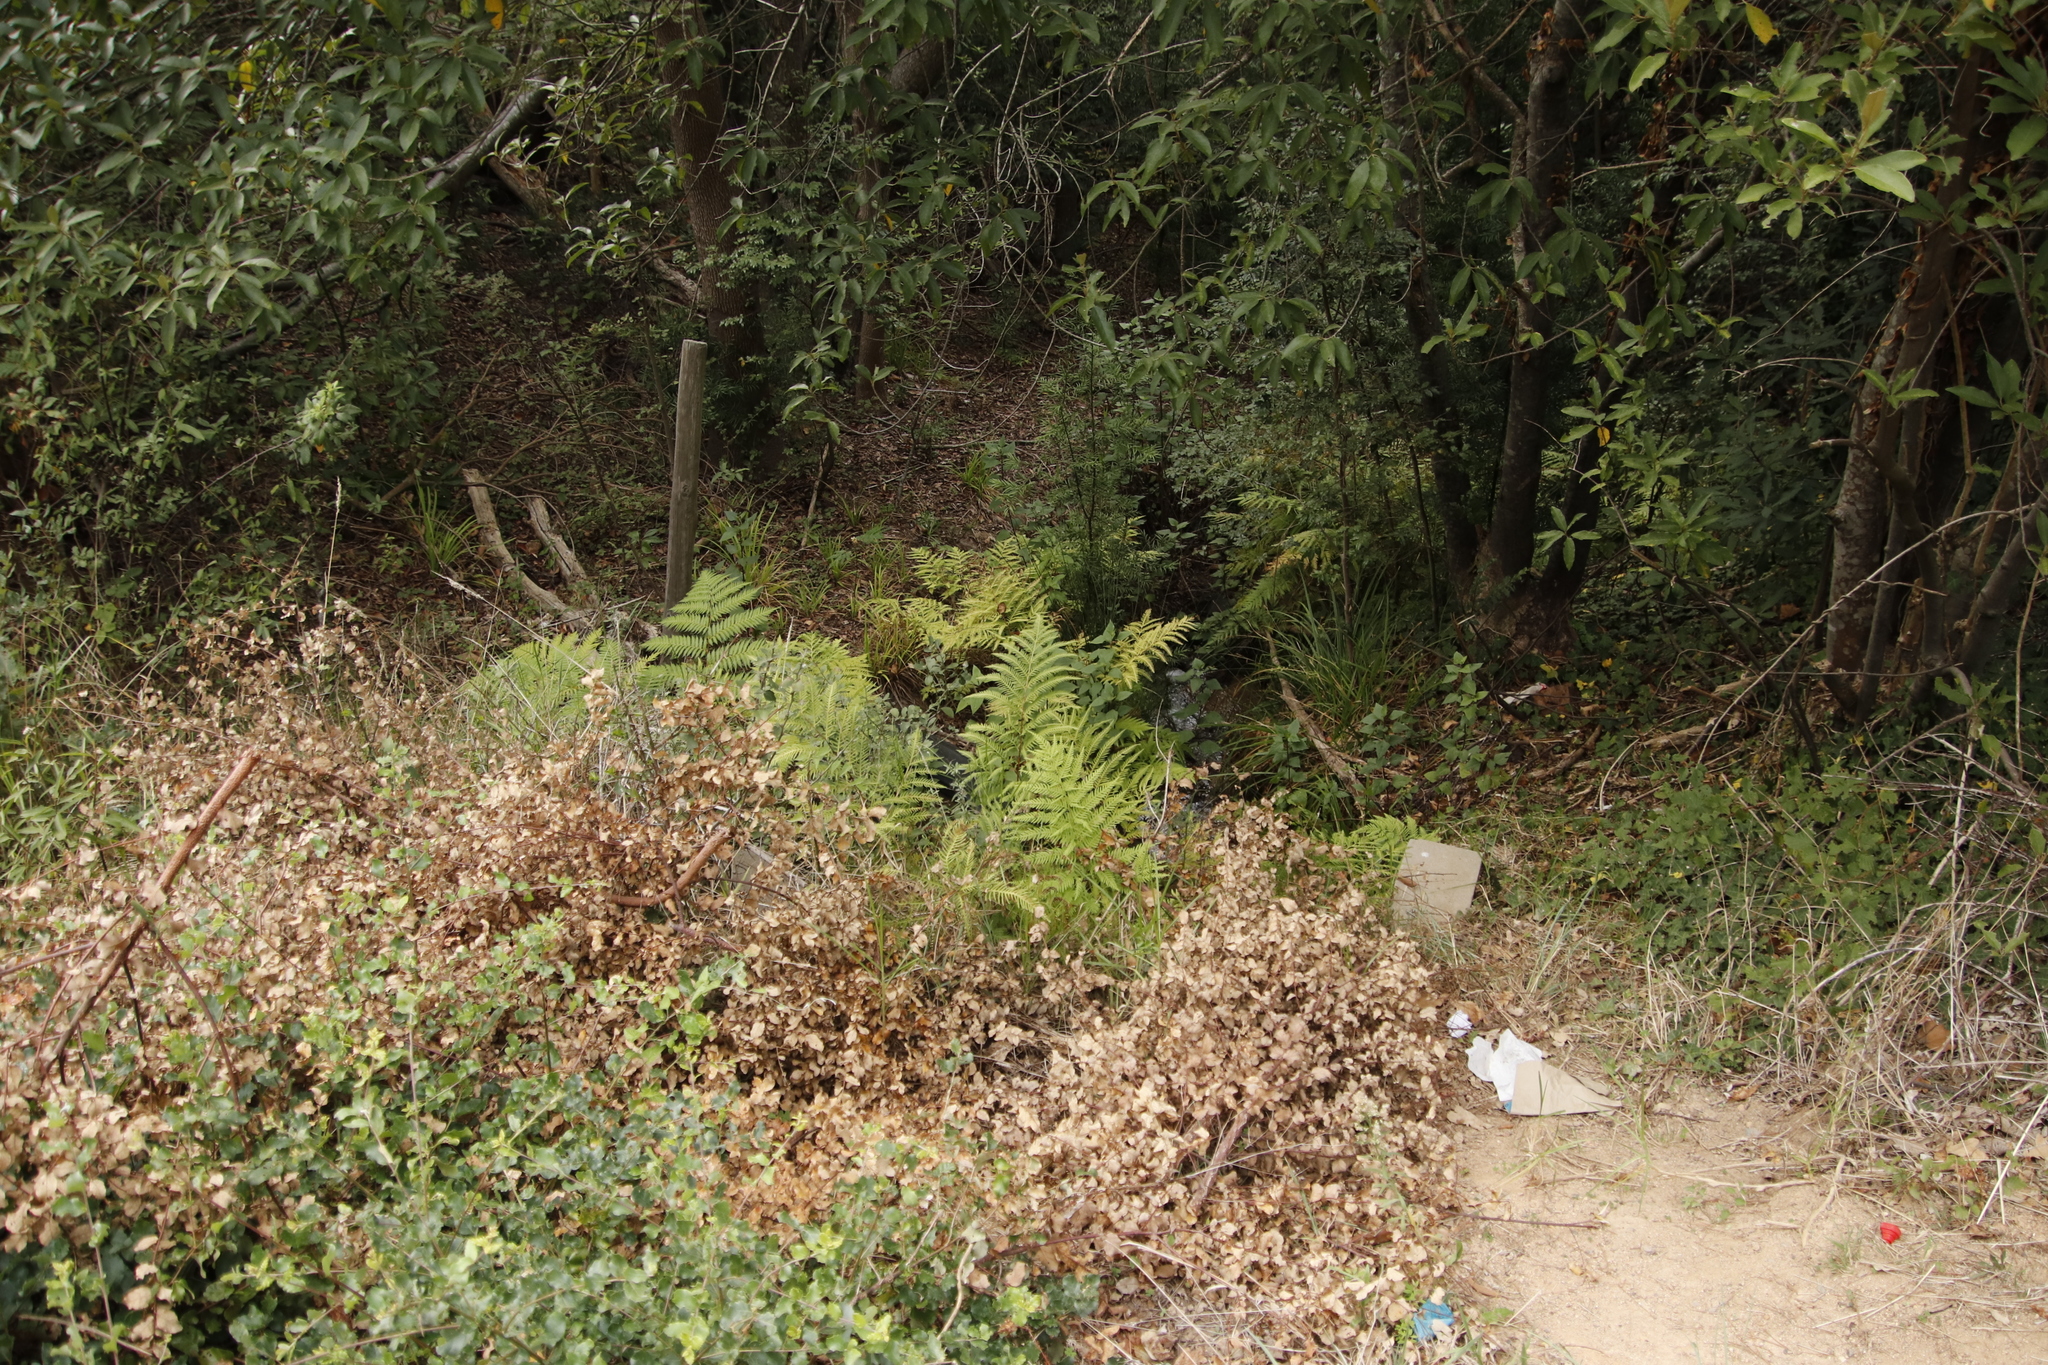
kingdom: Plantae
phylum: Tracheophyta
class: Polypodiopsida
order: Polypodiales
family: Pteridaceae
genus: Pteris
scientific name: Pteris dentata
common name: Toothed brake
